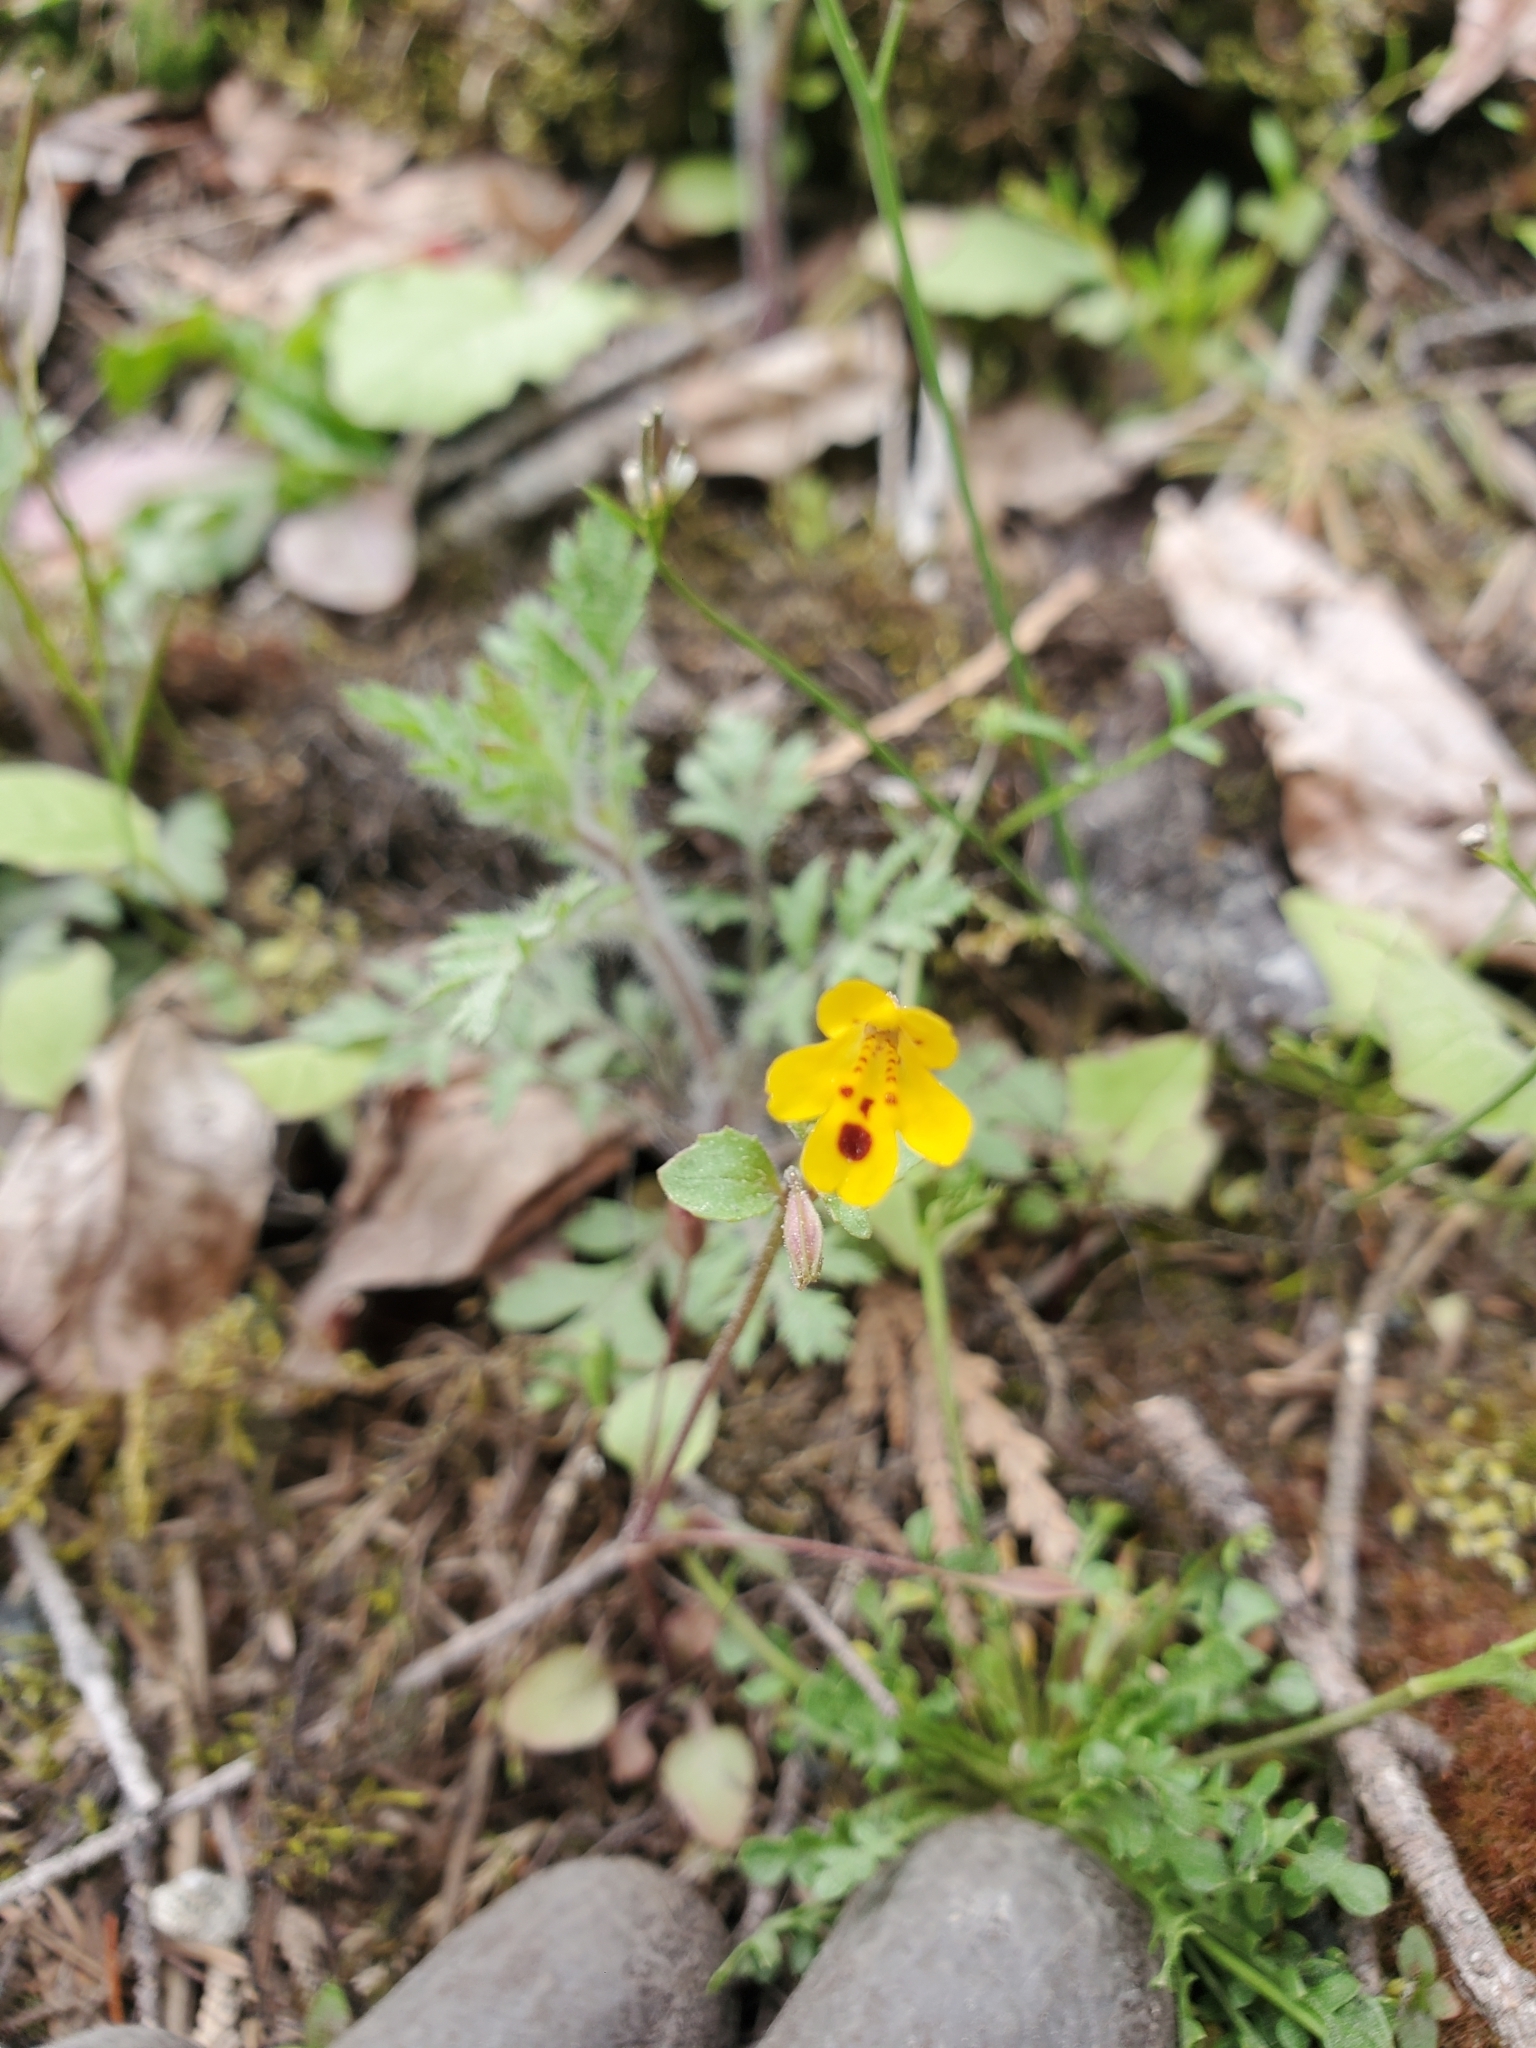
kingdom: Plantae
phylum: Tracheophyta
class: Magnoliopsida
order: Lamiales
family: Phrymaceae
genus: Erythranthe
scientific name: Erythranthe alsinoides
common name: Chickweed monkeyflower
